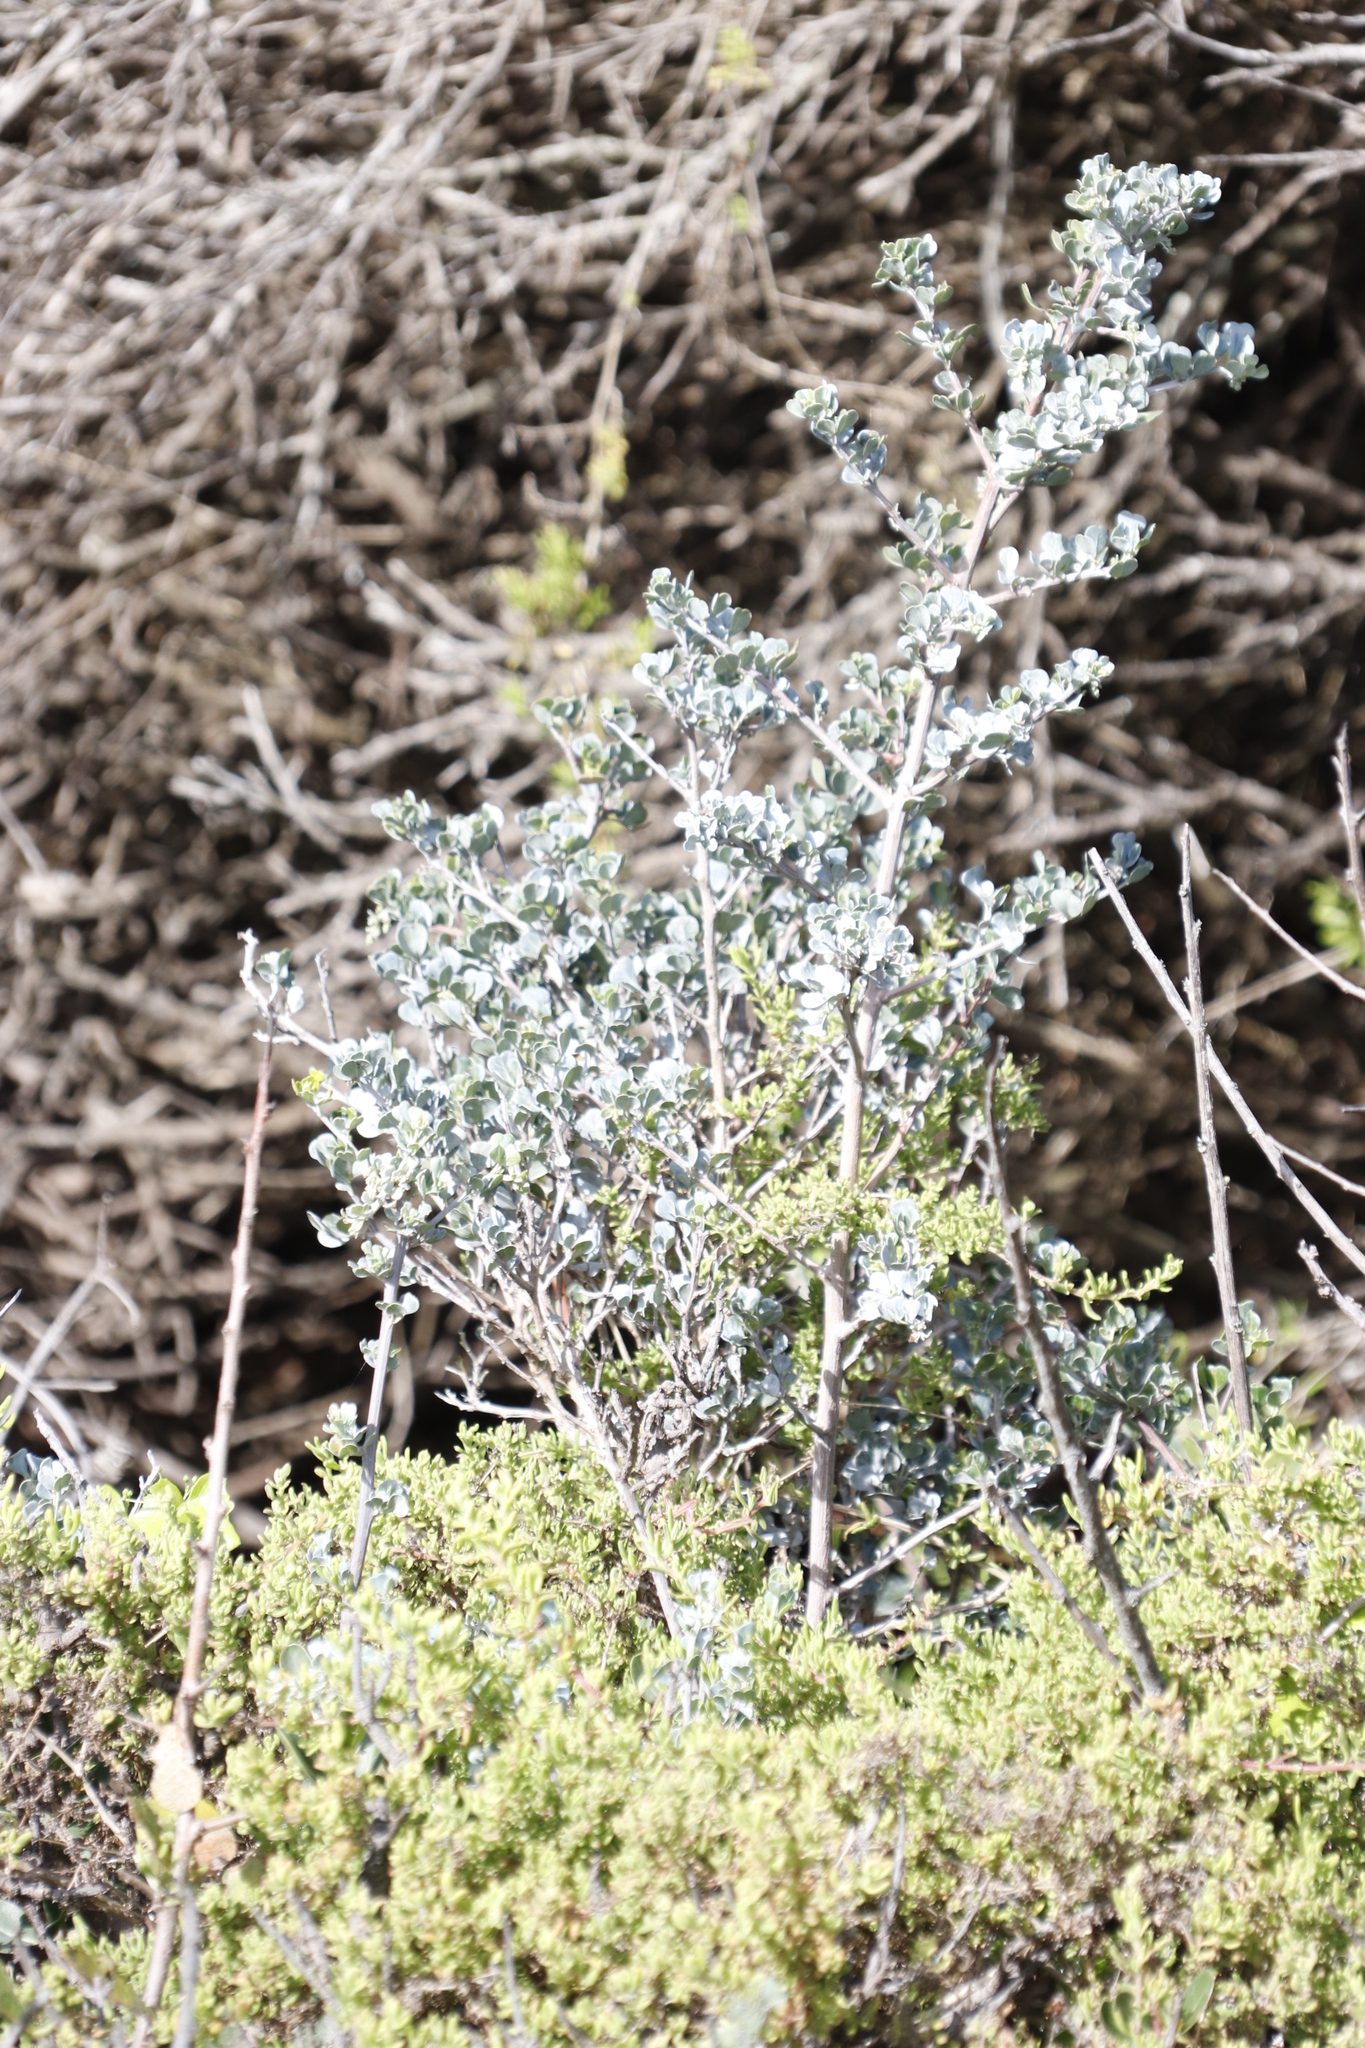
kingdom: Plantae
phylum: Tracheophyta
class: Magnoliopsida
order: Sapindales
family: Anacardiaceae
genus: Searsia
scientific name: Searsia glauca
